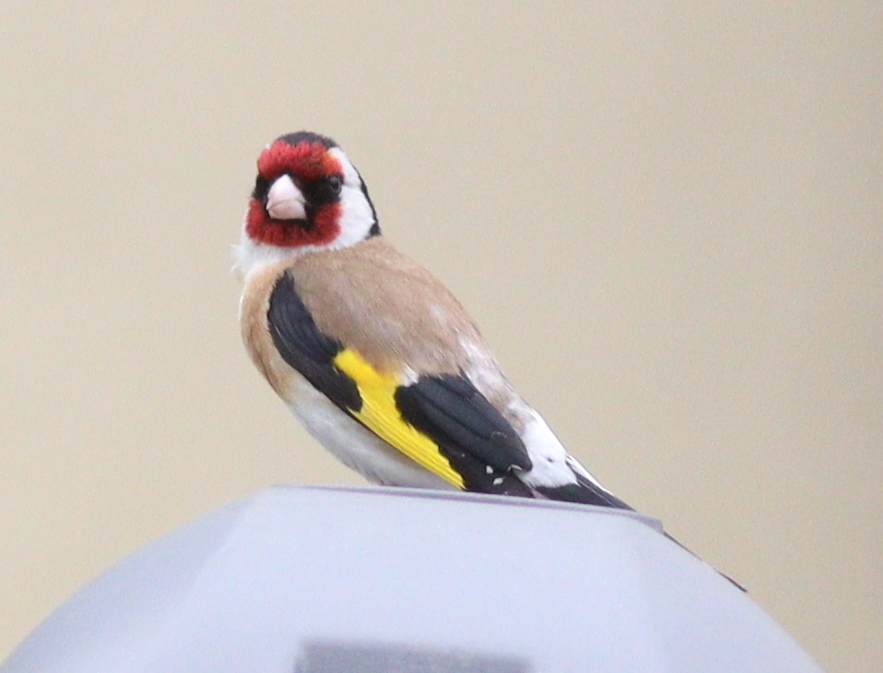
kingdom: Animalia
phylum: Chordata
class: Aves
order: Passeriformes
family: Fringillidae
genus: Carduelis
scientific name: Carduelis carduelis
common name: European goldfinch
